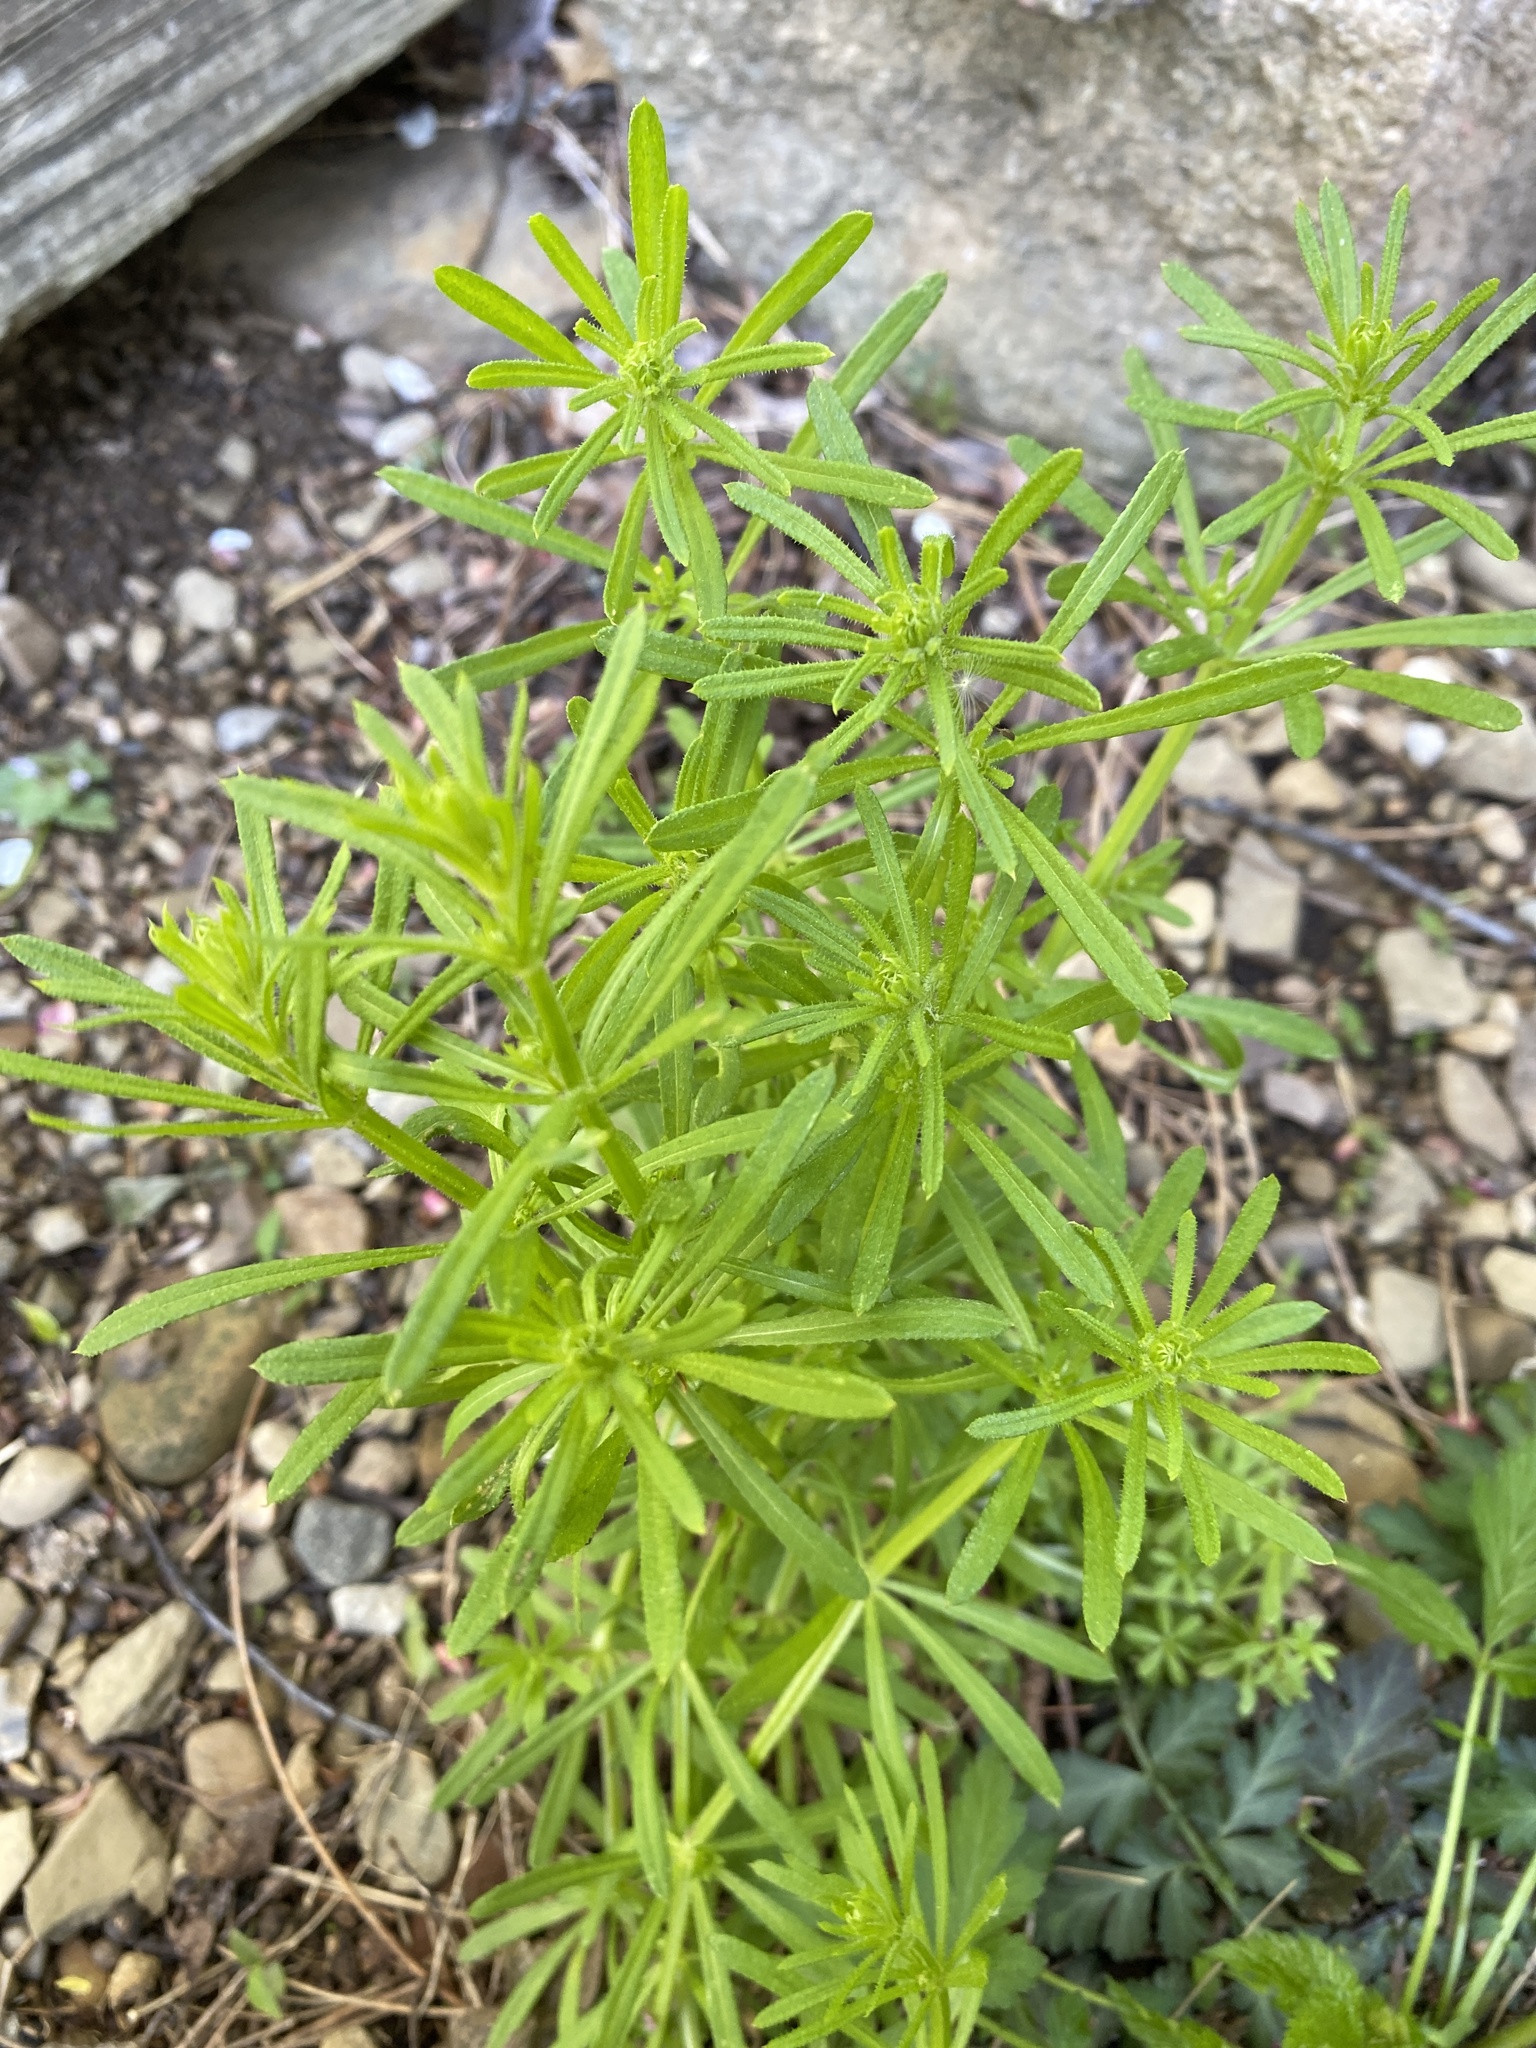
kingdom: Plantae
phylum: Tracheophyta
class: Magnoliopsida
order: Gentianales
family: Rubiaceae
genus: Galium
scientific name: Galium aparine
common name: Cleavers
